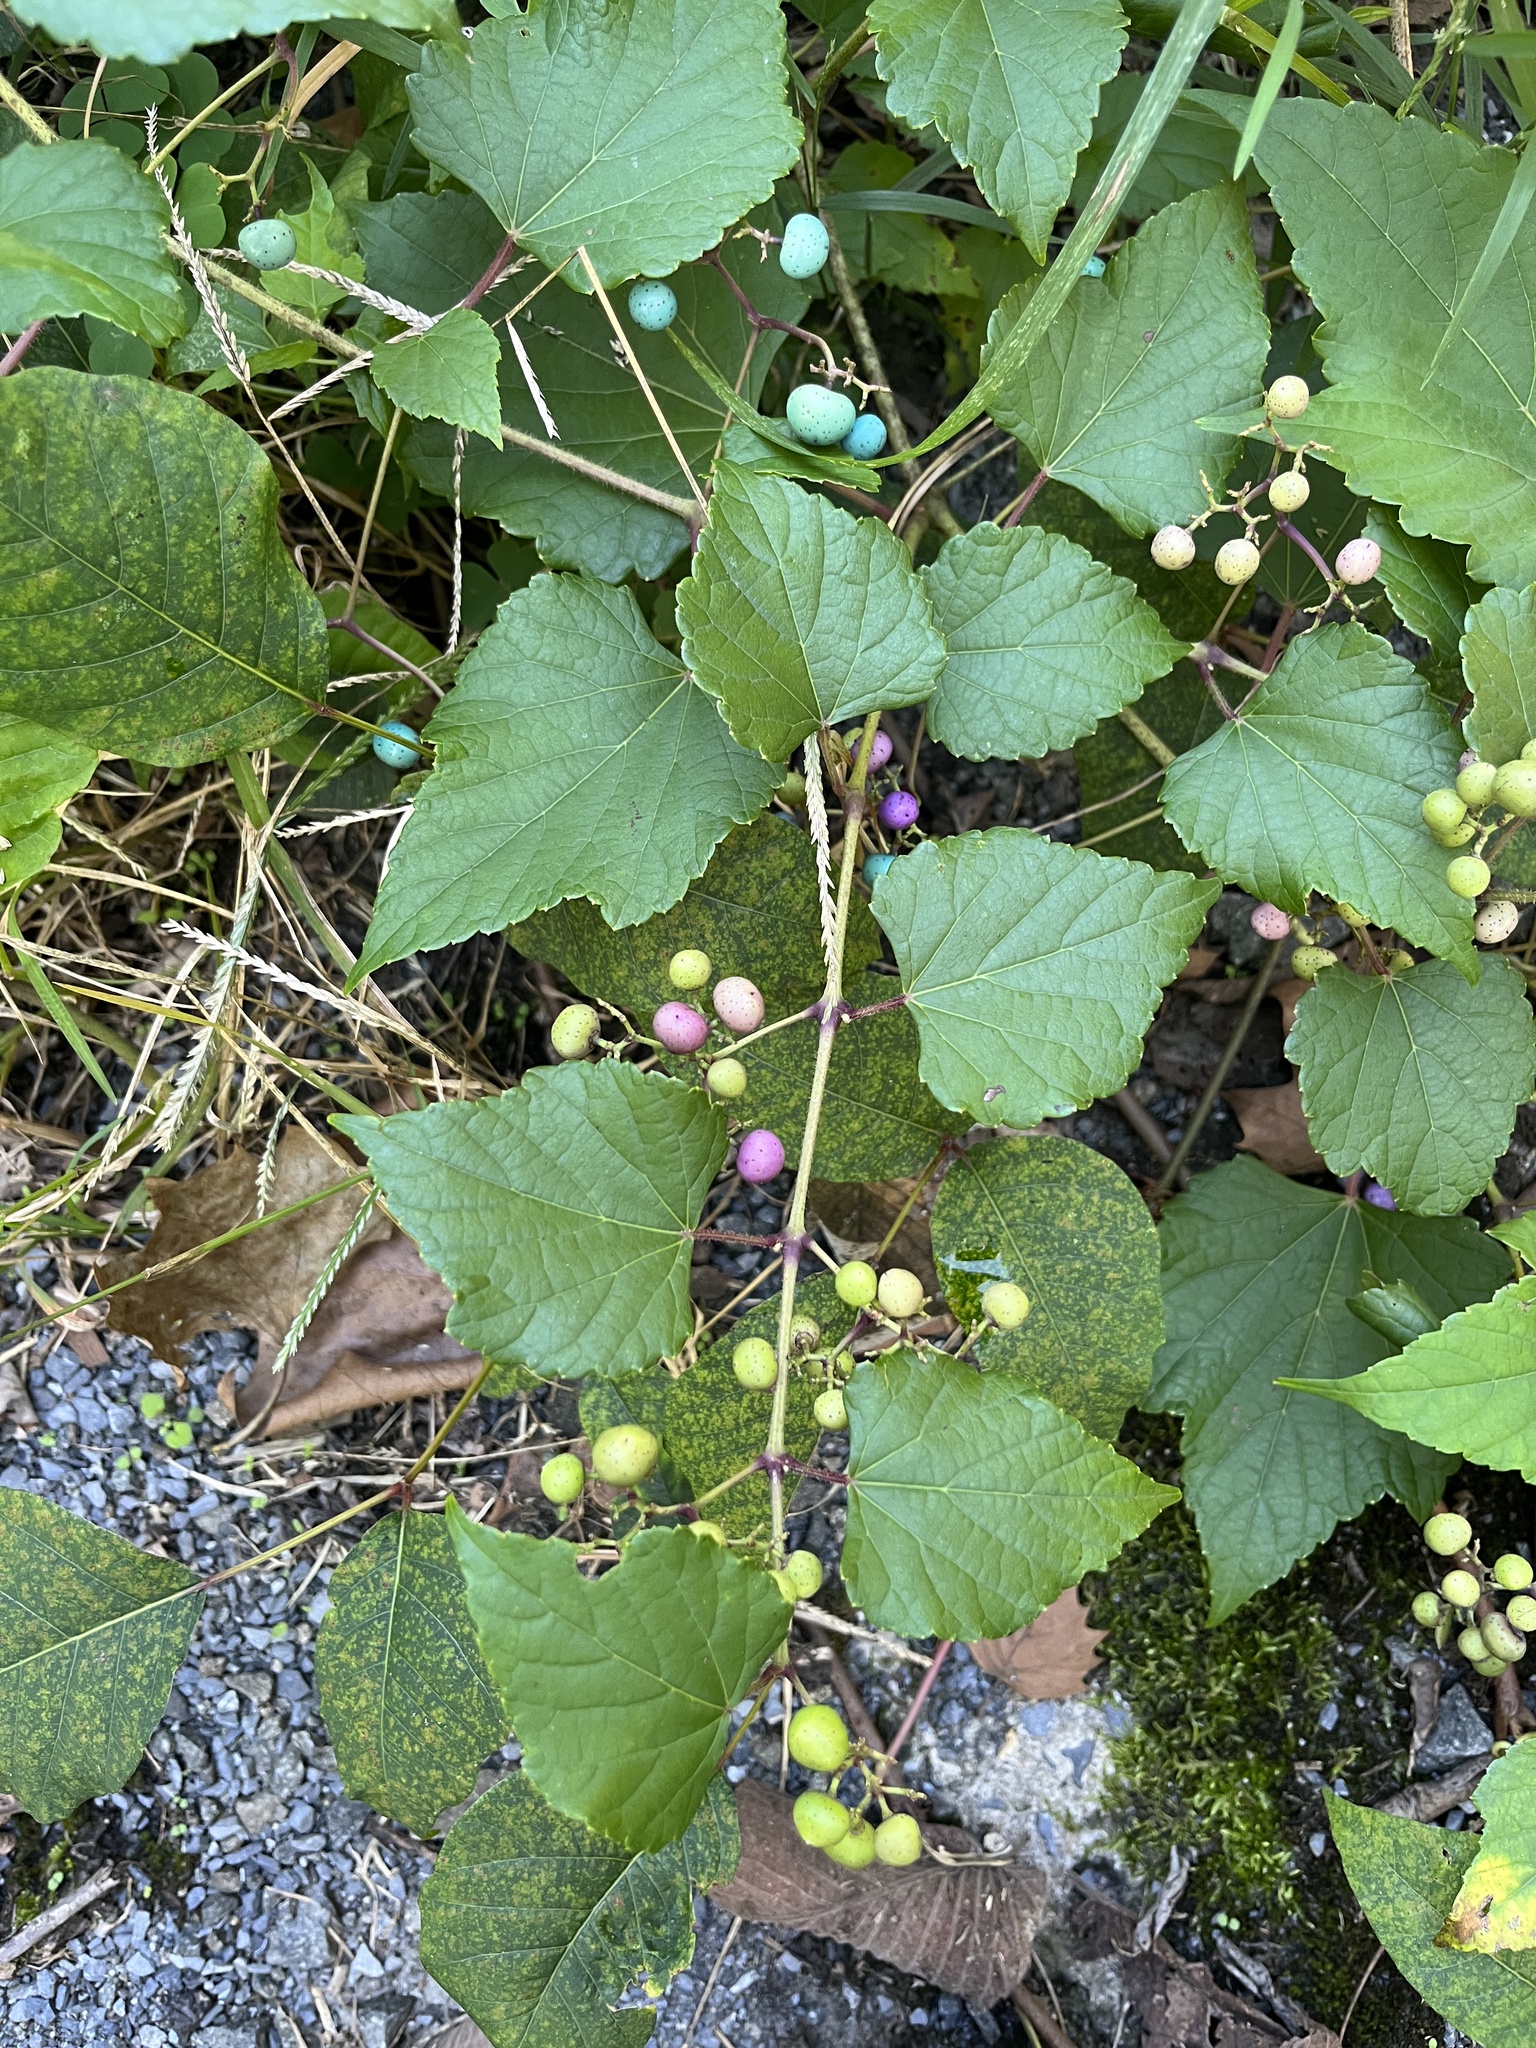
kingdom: Plantae
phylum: Tracheophyta
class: Magnoliopsida
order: Vitales
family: Vitaceae
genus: Ampelopsis
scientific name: Ampelopsis glandulosa
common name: Amur peppervine
